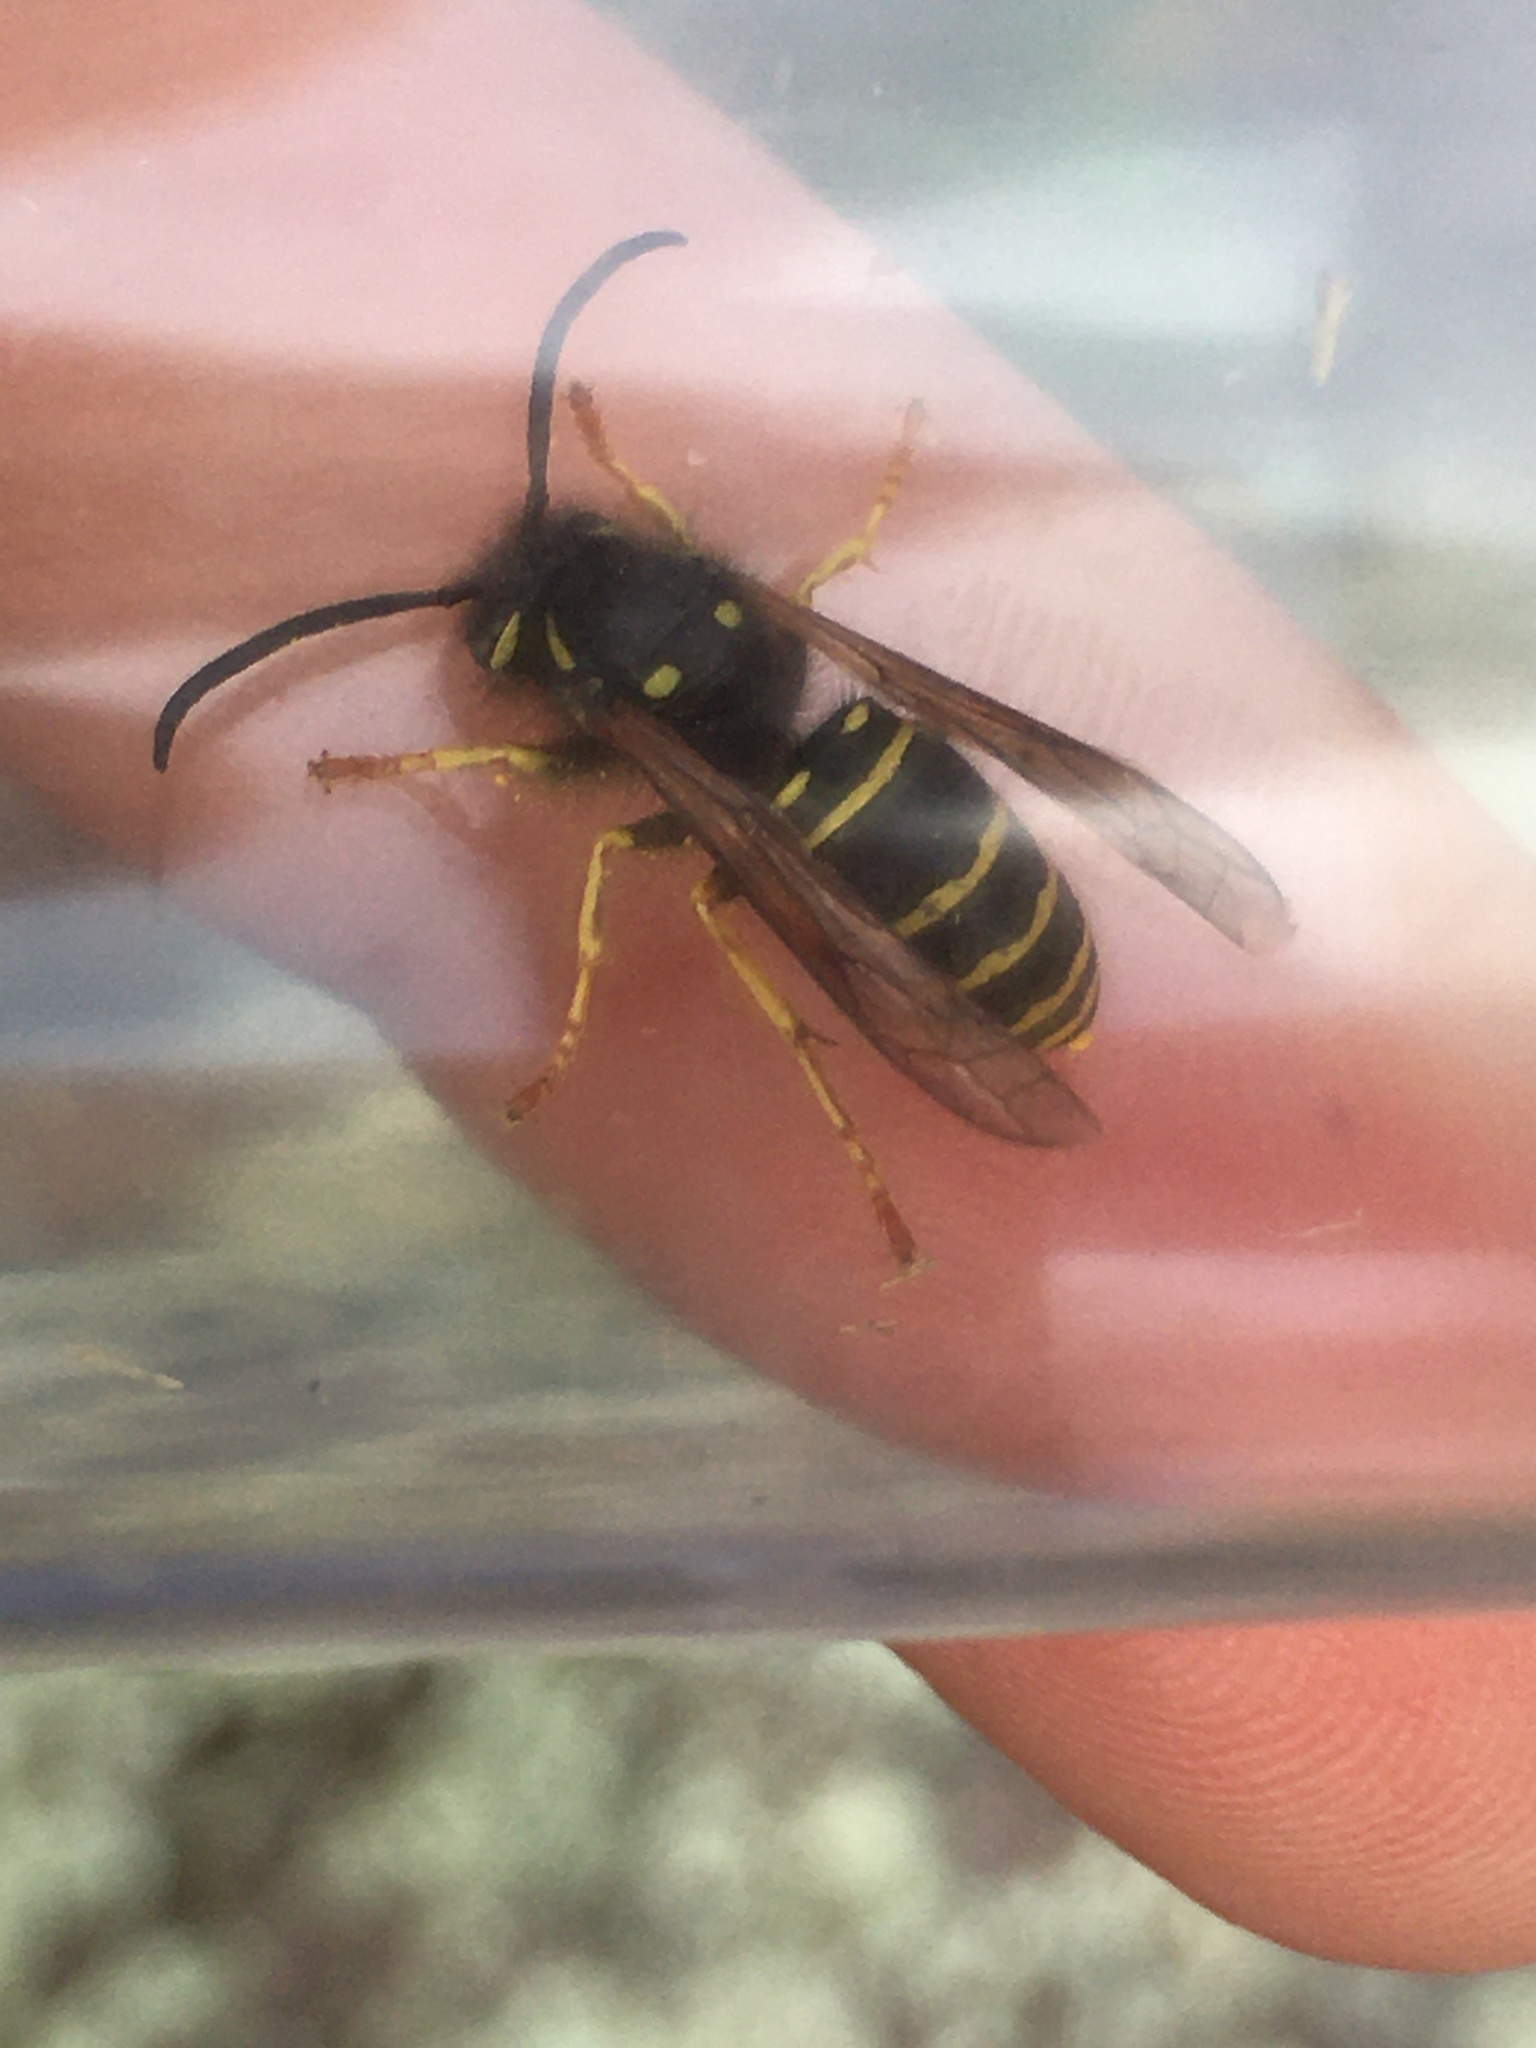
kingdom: Animalia
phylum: Arthropoda
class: Insecta
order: Hymenoptera
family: Vespidae
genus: Vespula
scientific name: Vespula acadica
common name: Forest yellowjacket
